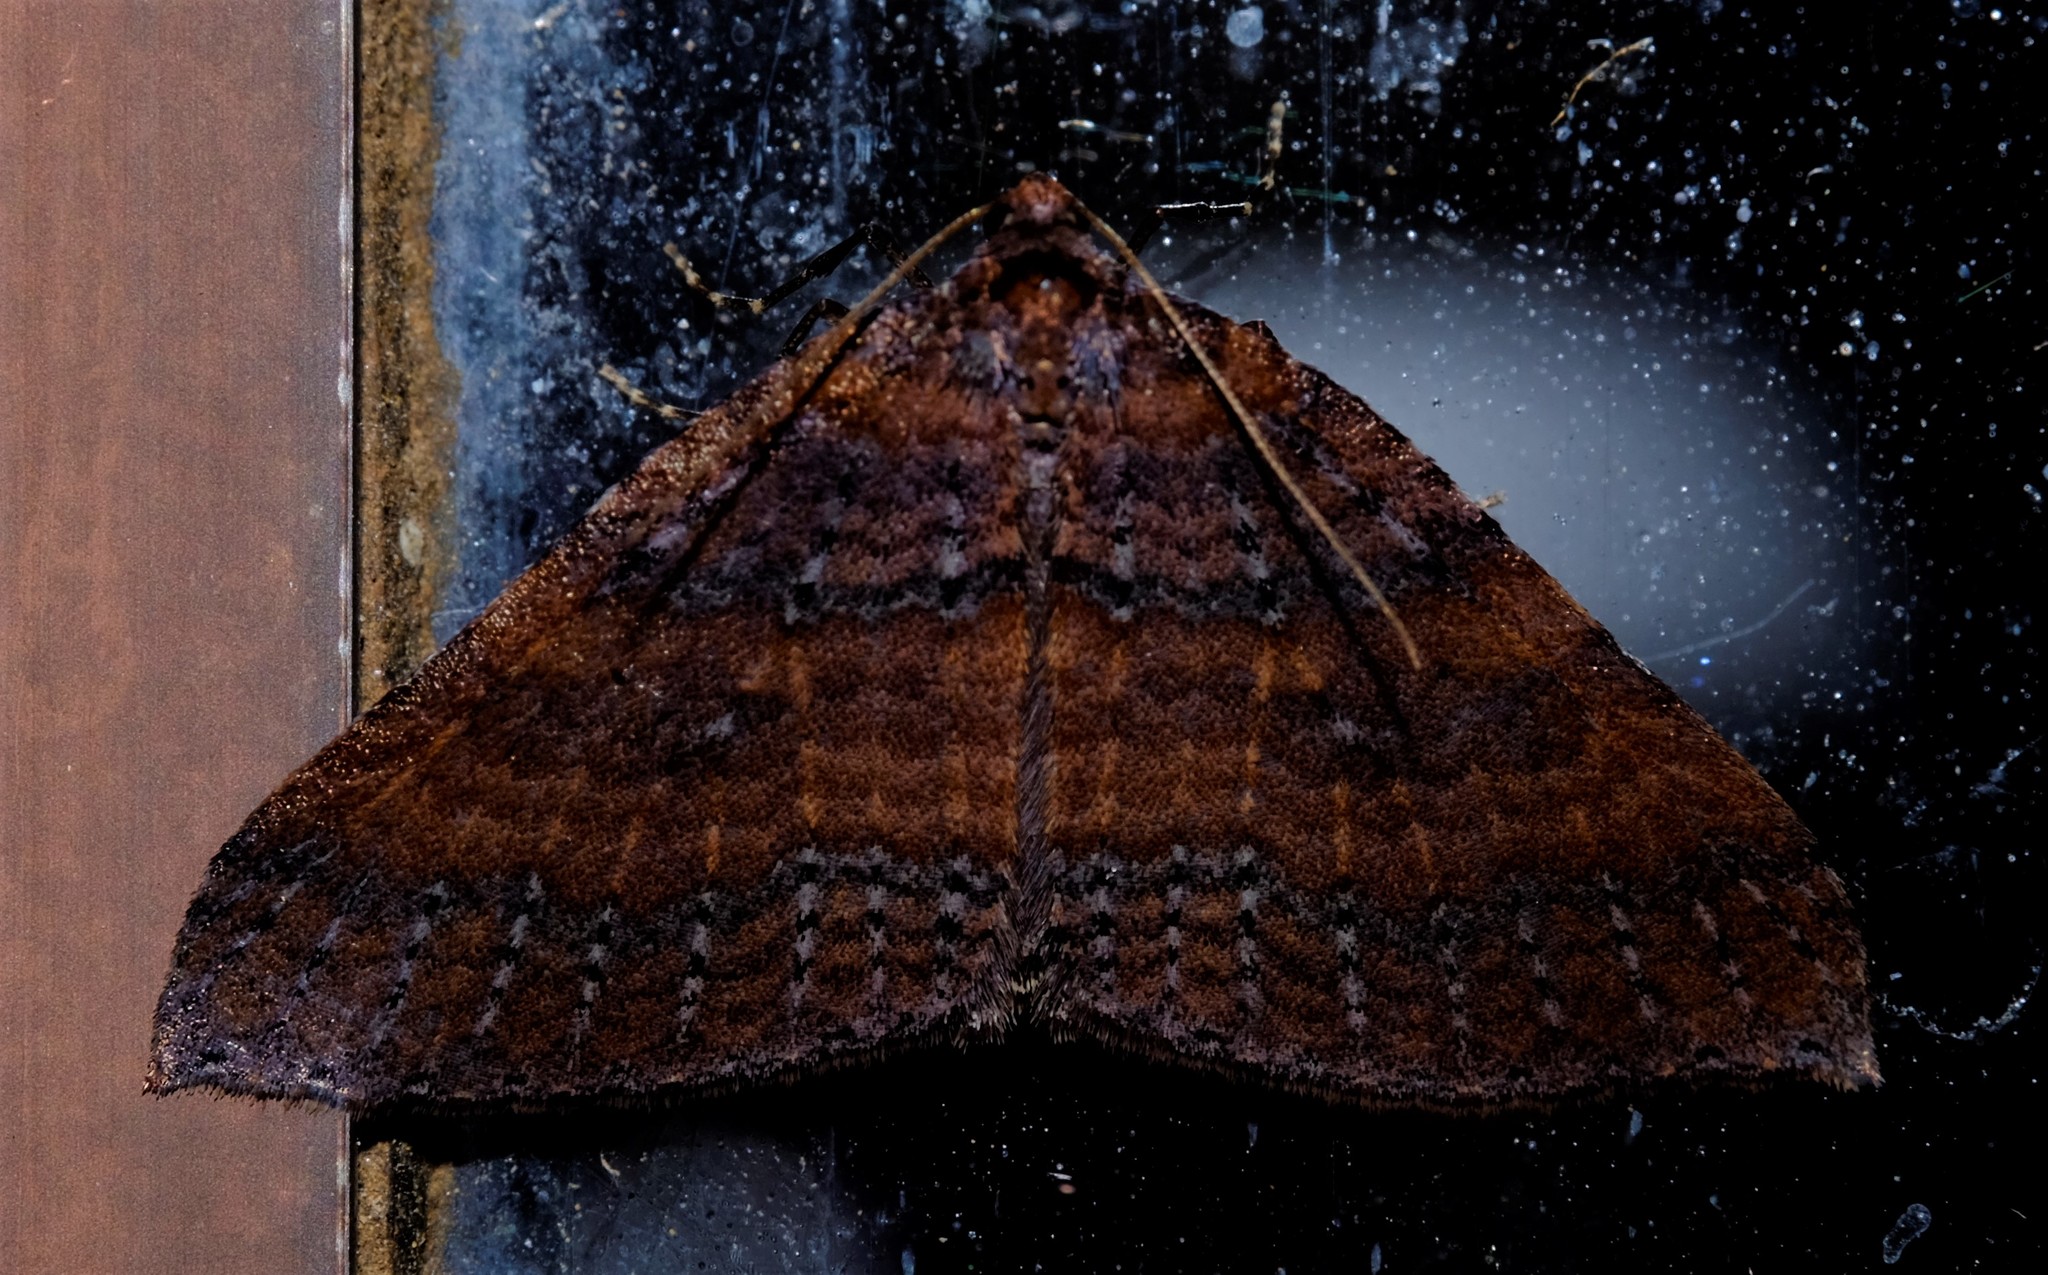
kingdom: Animalia
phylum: Arthropoda
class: Insecta
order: Lepidoptera
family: Geometridae
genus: Larentia
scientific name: Larentia apotoma
